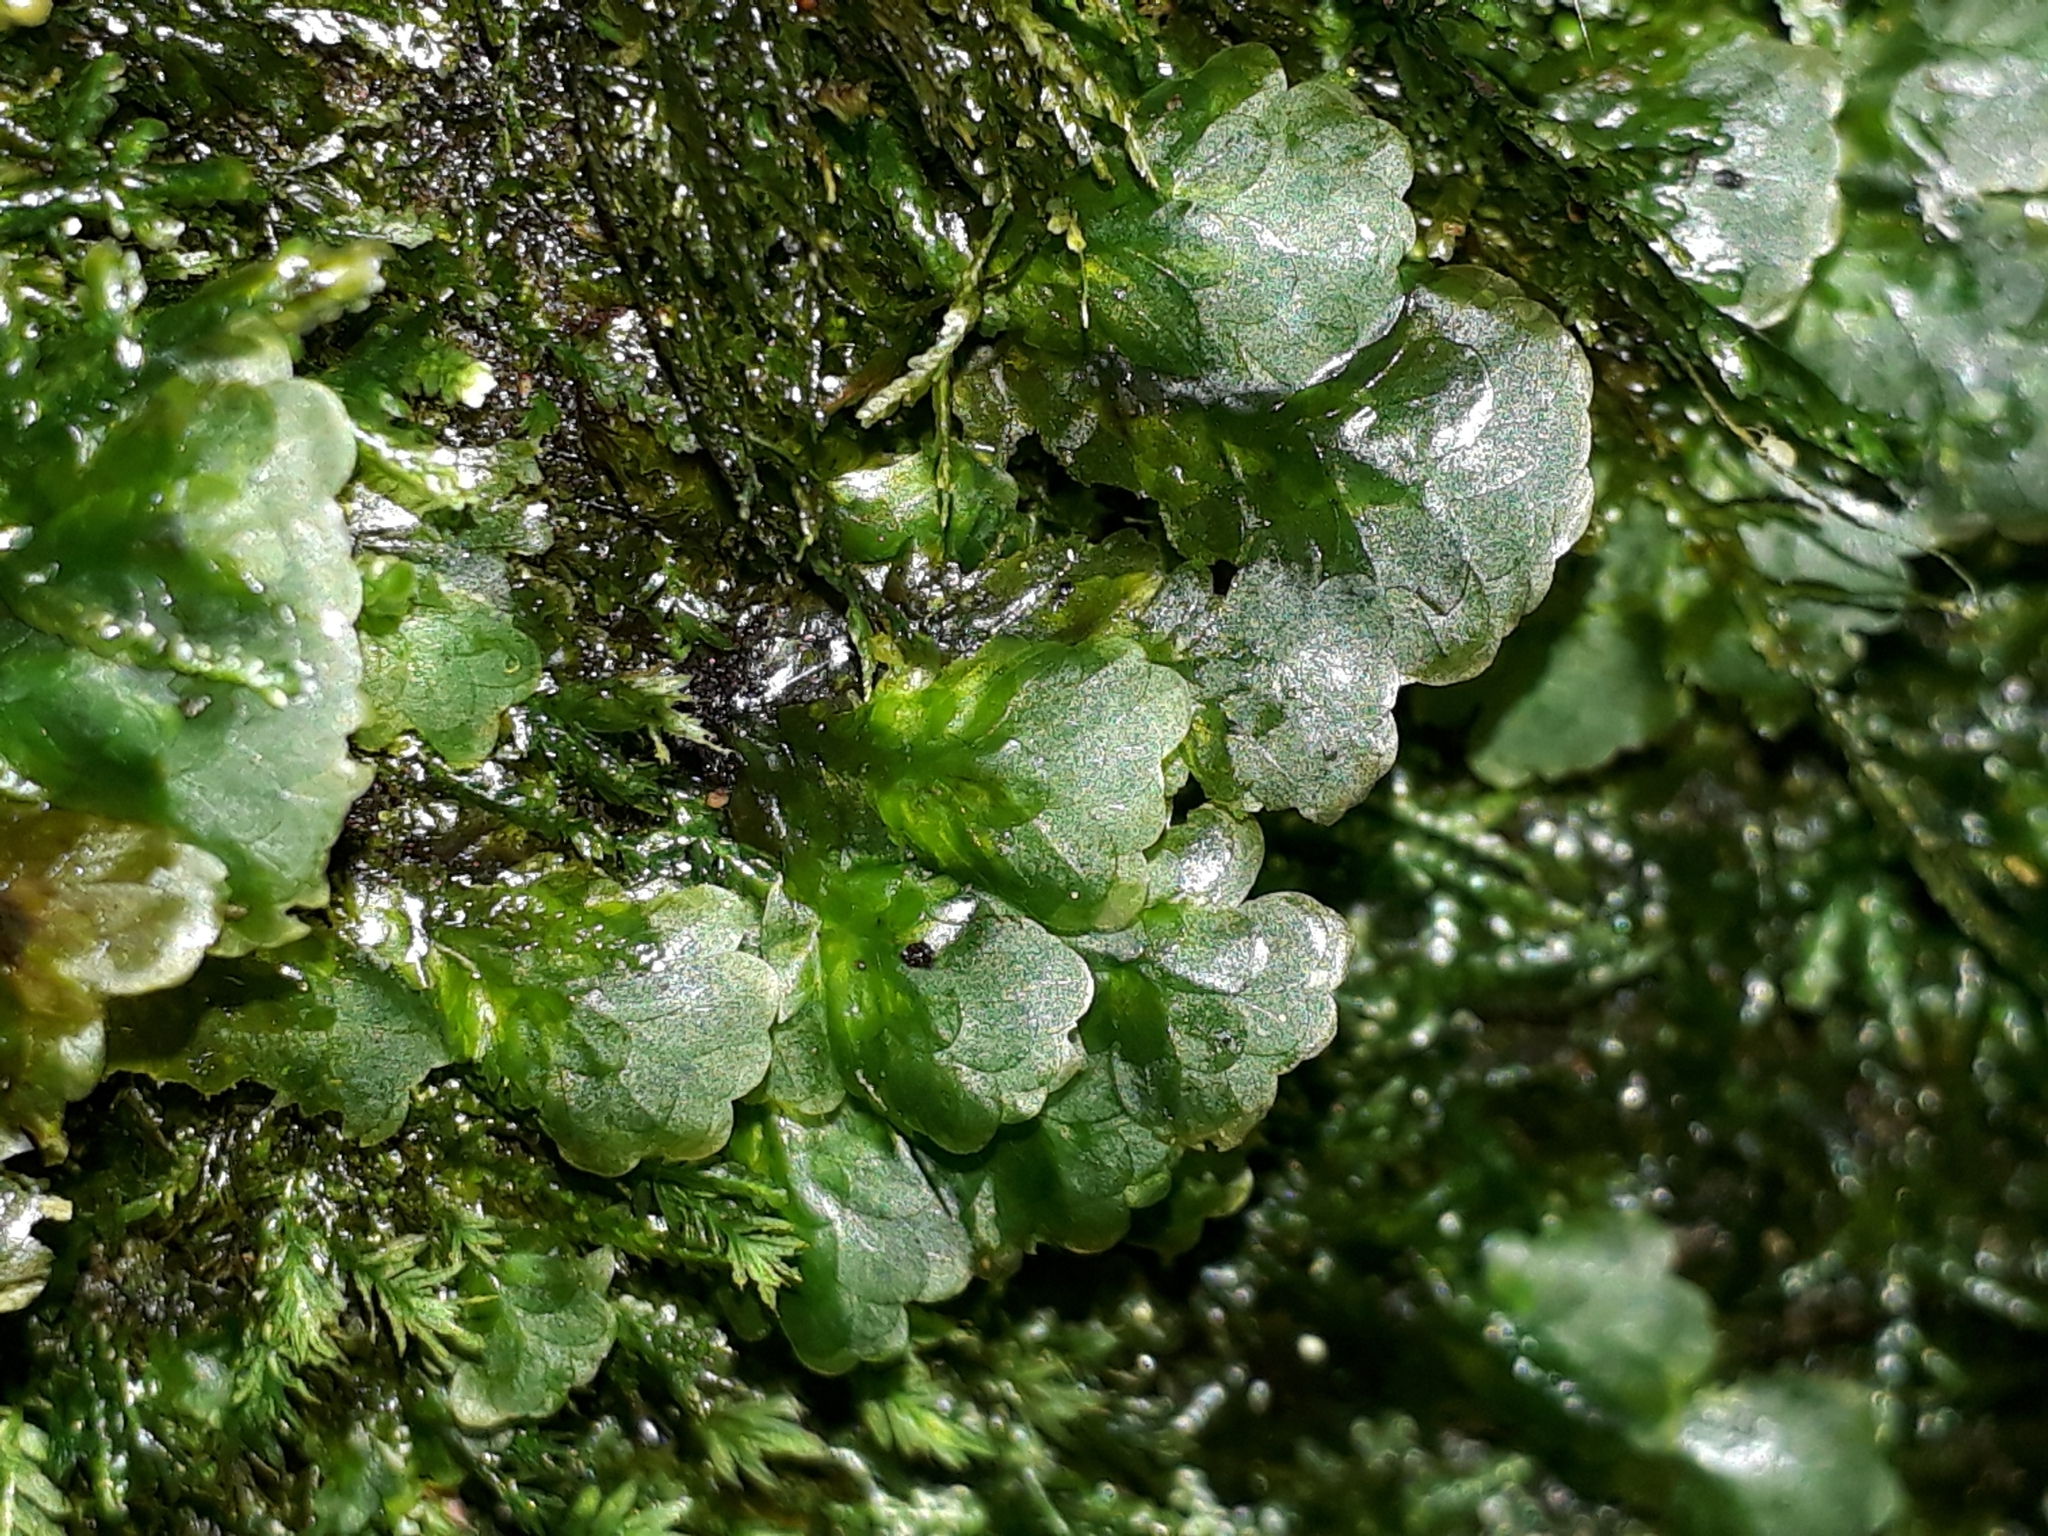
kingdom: Plantae
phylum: Bryophyta
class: Bryopsida
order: Hookeriales
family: Daltoniaceae
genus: Distichophyllum
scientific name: Distichophyllum microcarpon
